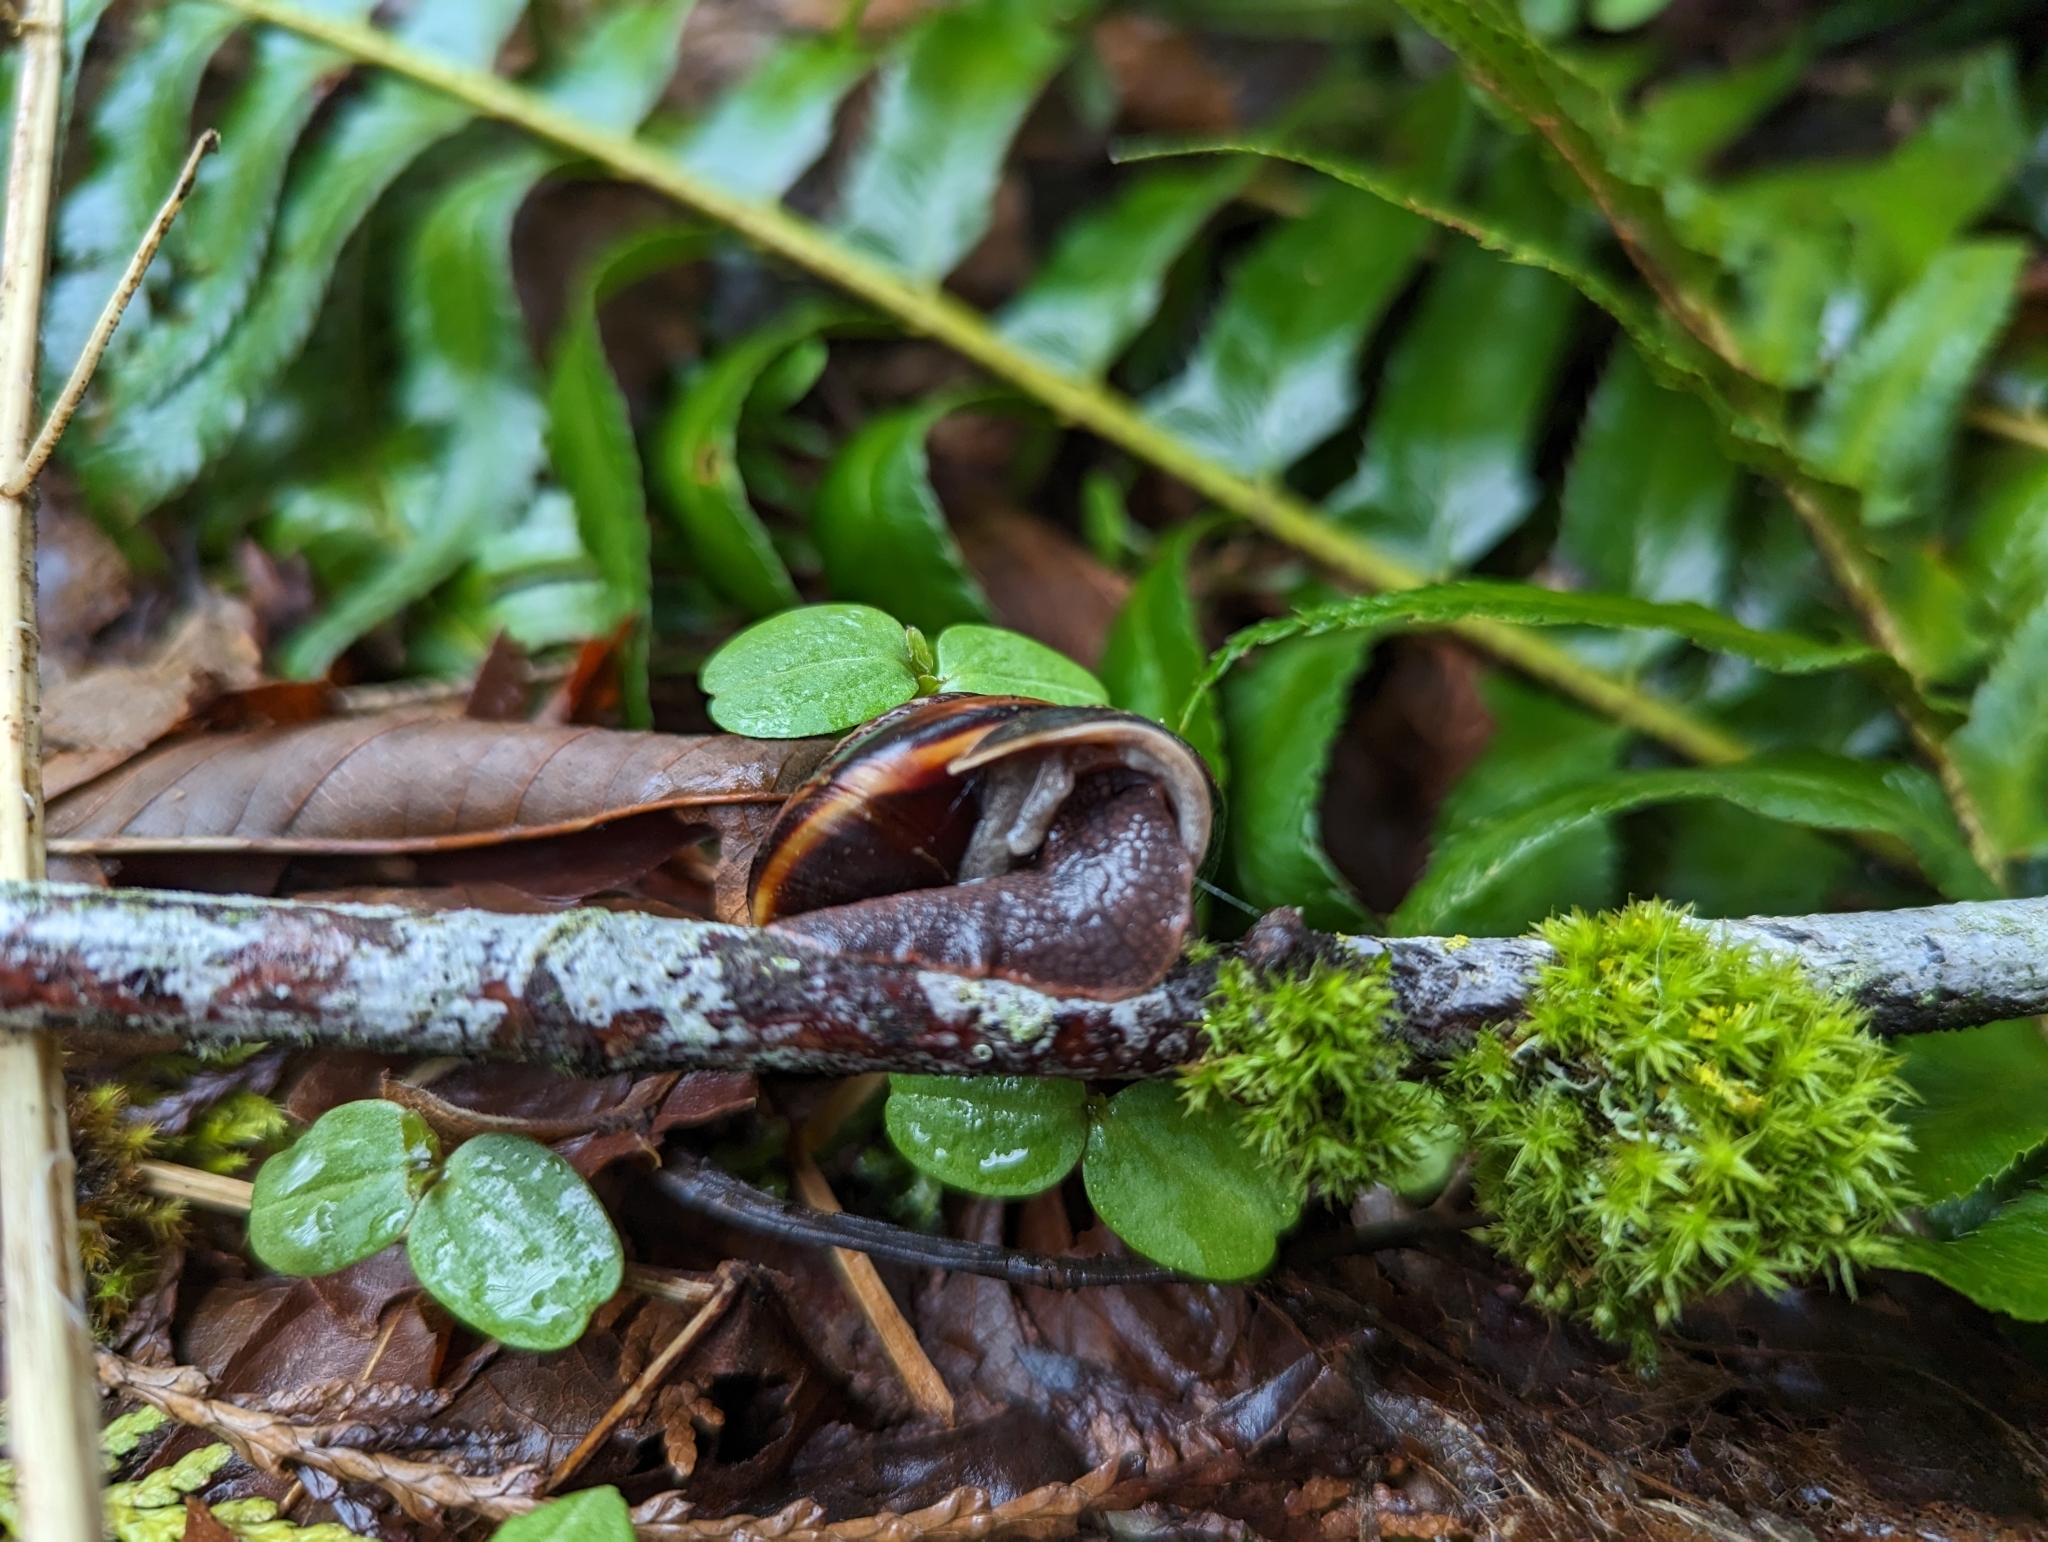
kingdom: Animalia
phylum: Mollusca
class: Gastropoda
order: Stylommatophora
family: Xanthonychidae
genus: Monadenia
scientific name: Monadenia fidelis
